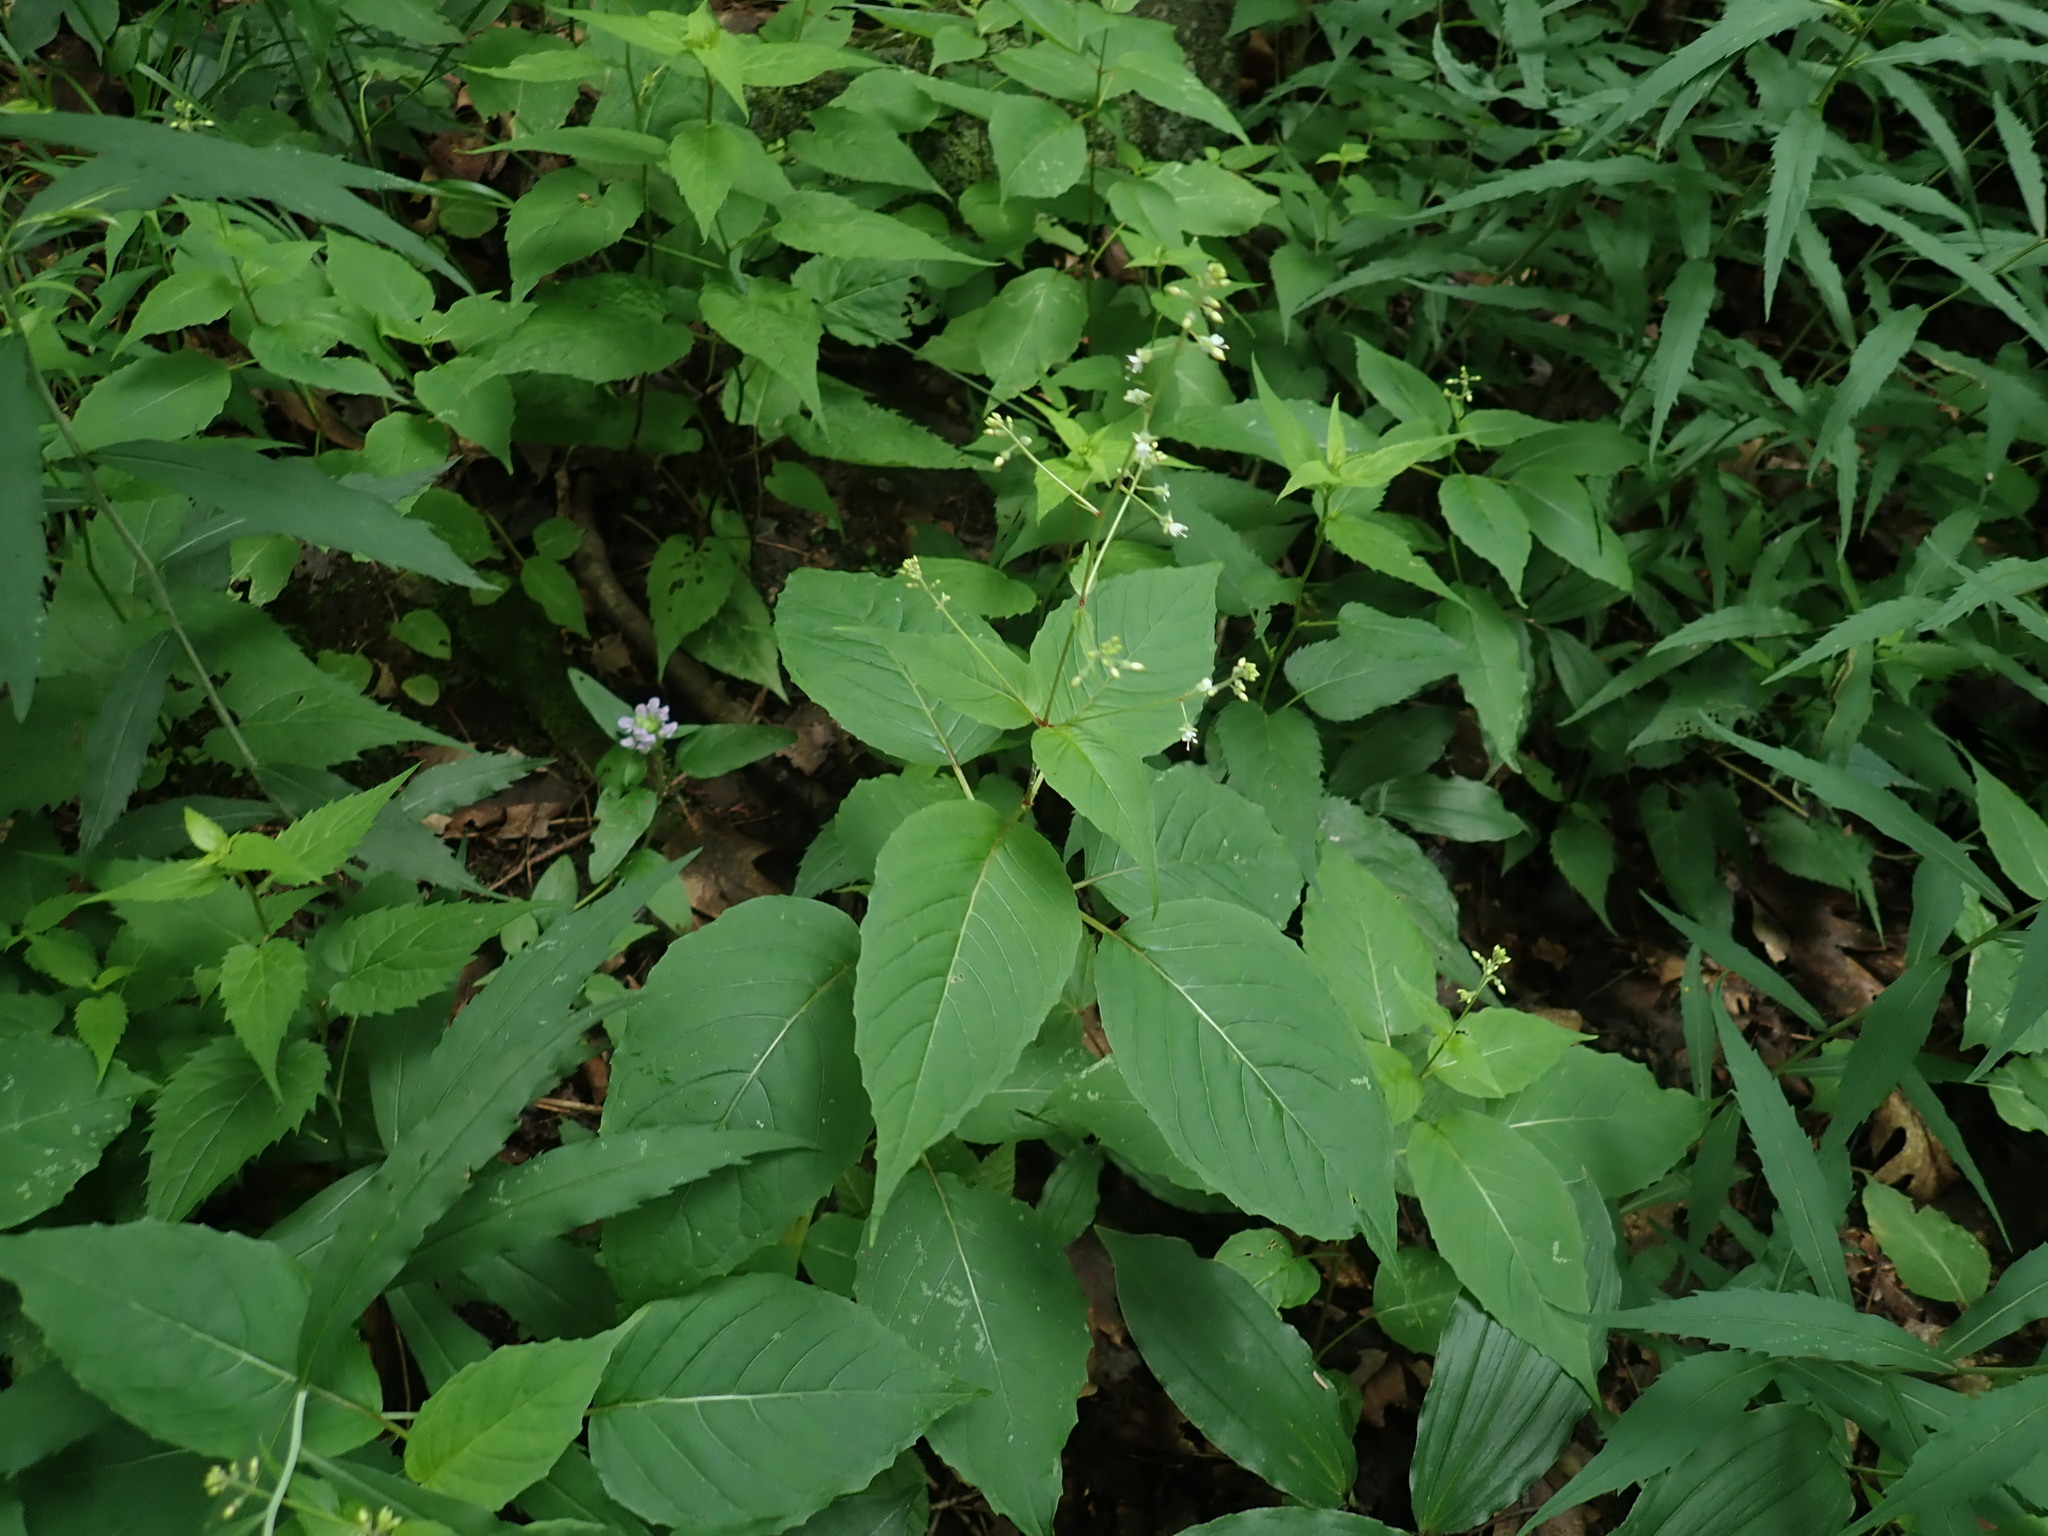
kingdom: Plantae
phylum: Tracheophyta
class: Magnoliopsida
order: Myrtales
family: Onagraceae
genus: Circaea
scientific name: Circaea canadensis
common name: Broad-leaved enchanter's nightshade
